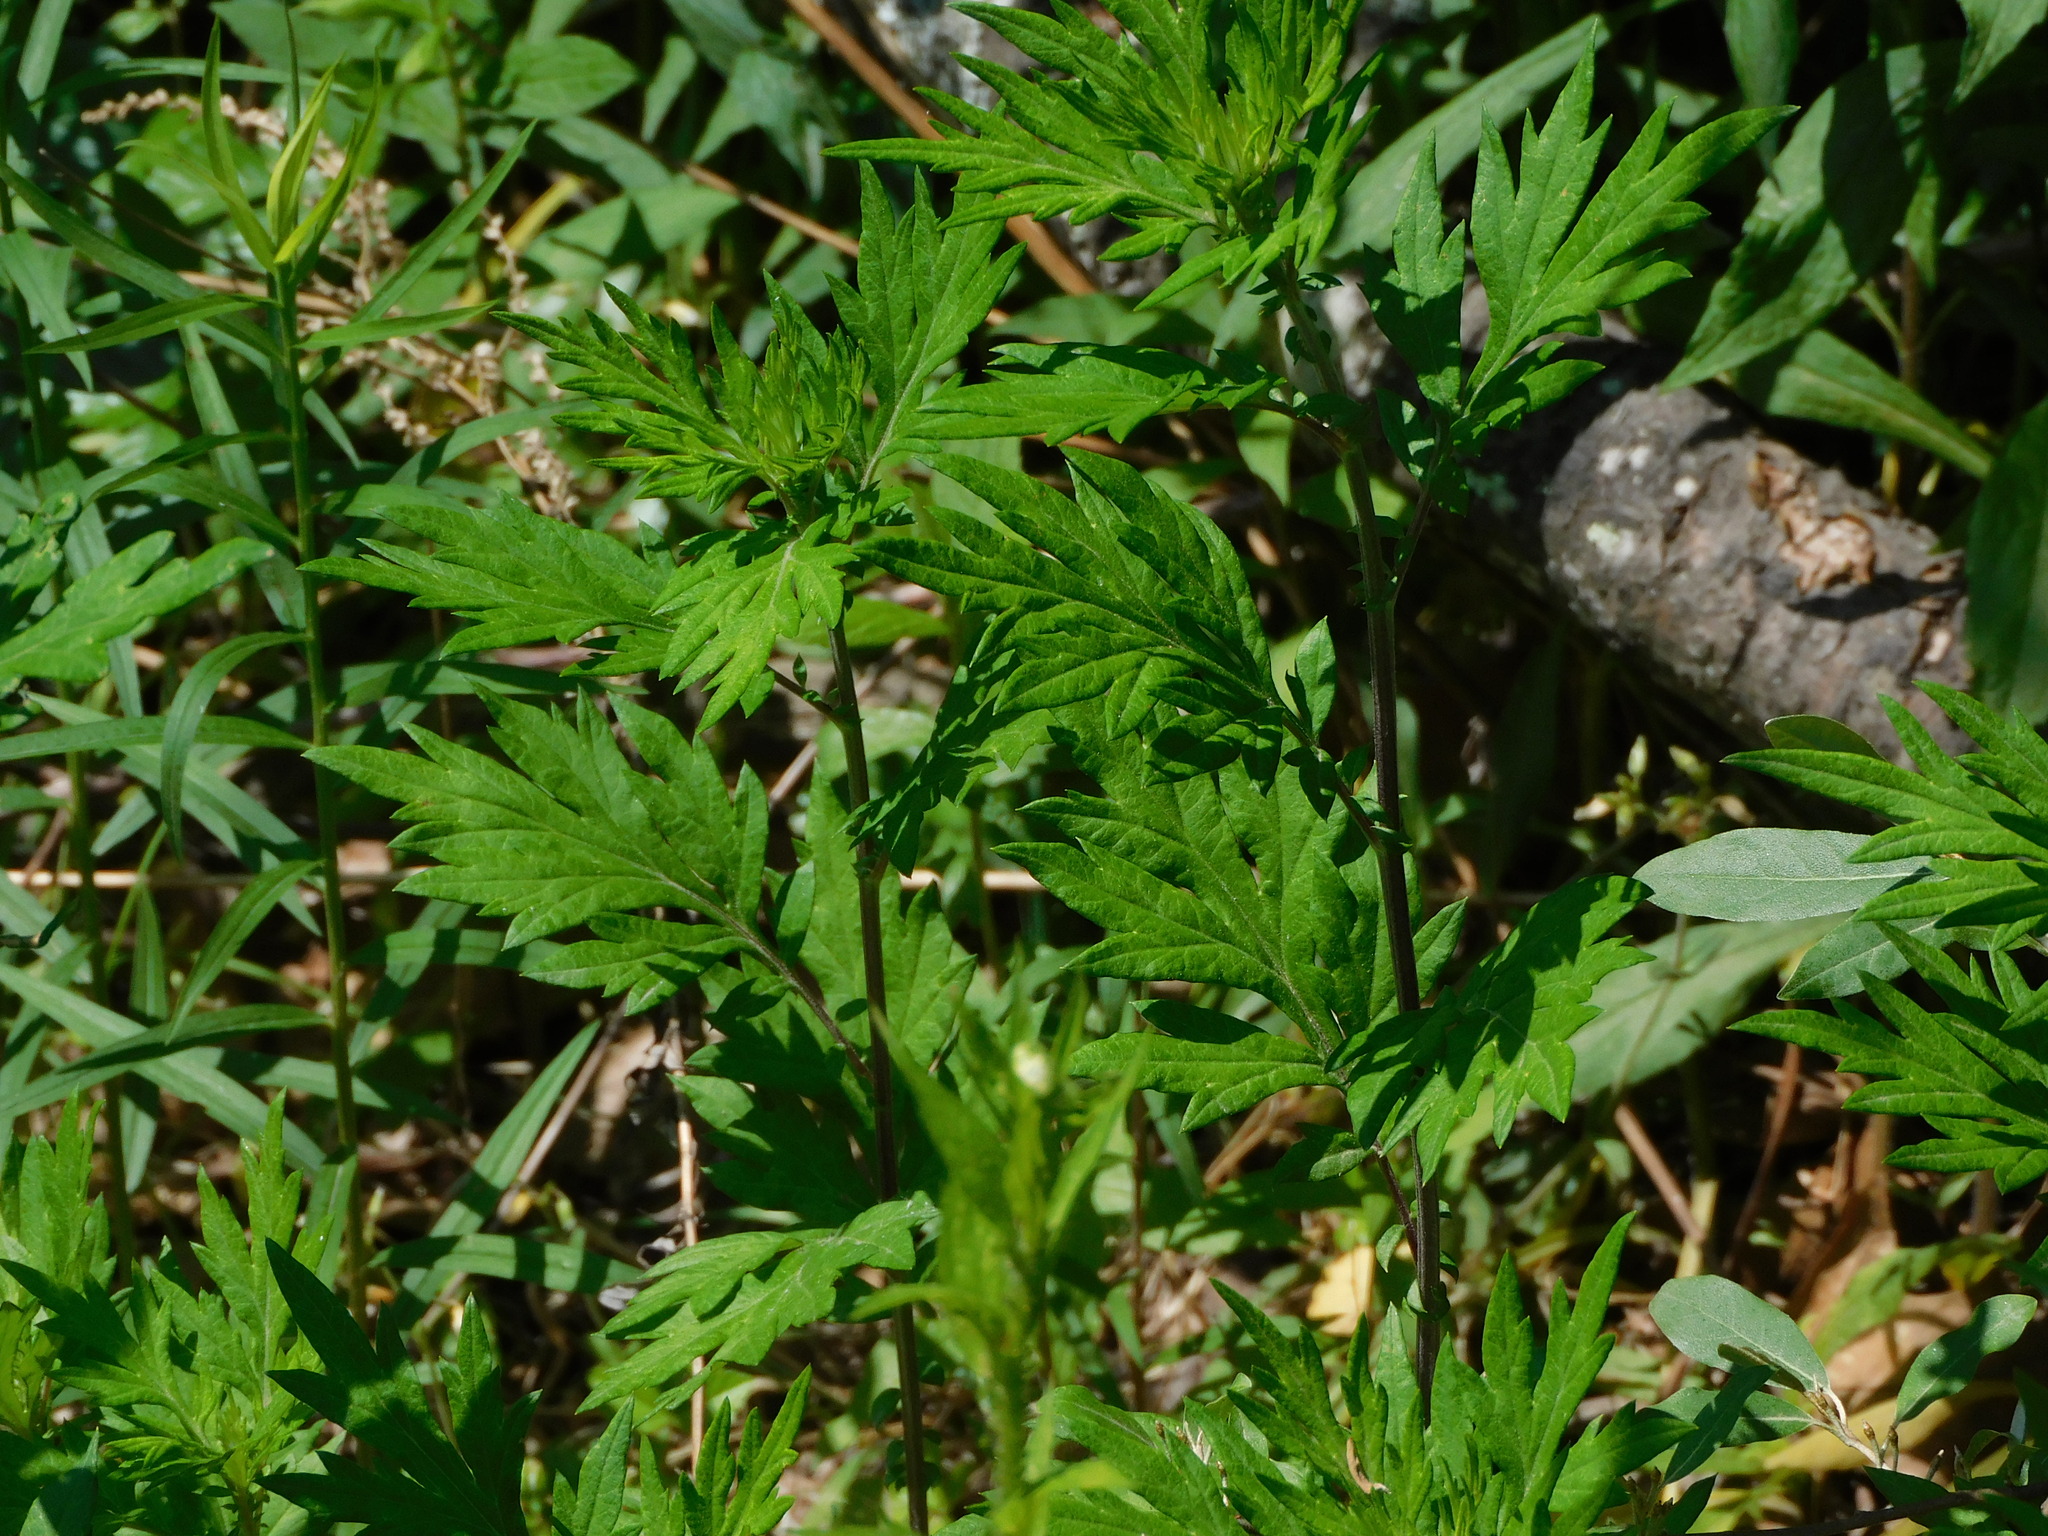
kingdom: Plantae
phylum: Tracheophyta
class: Magnoliopsida
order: Asterales
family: Asteraceae
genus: Artemisia
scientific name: Artemisia vulgaris
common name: Mugwort
